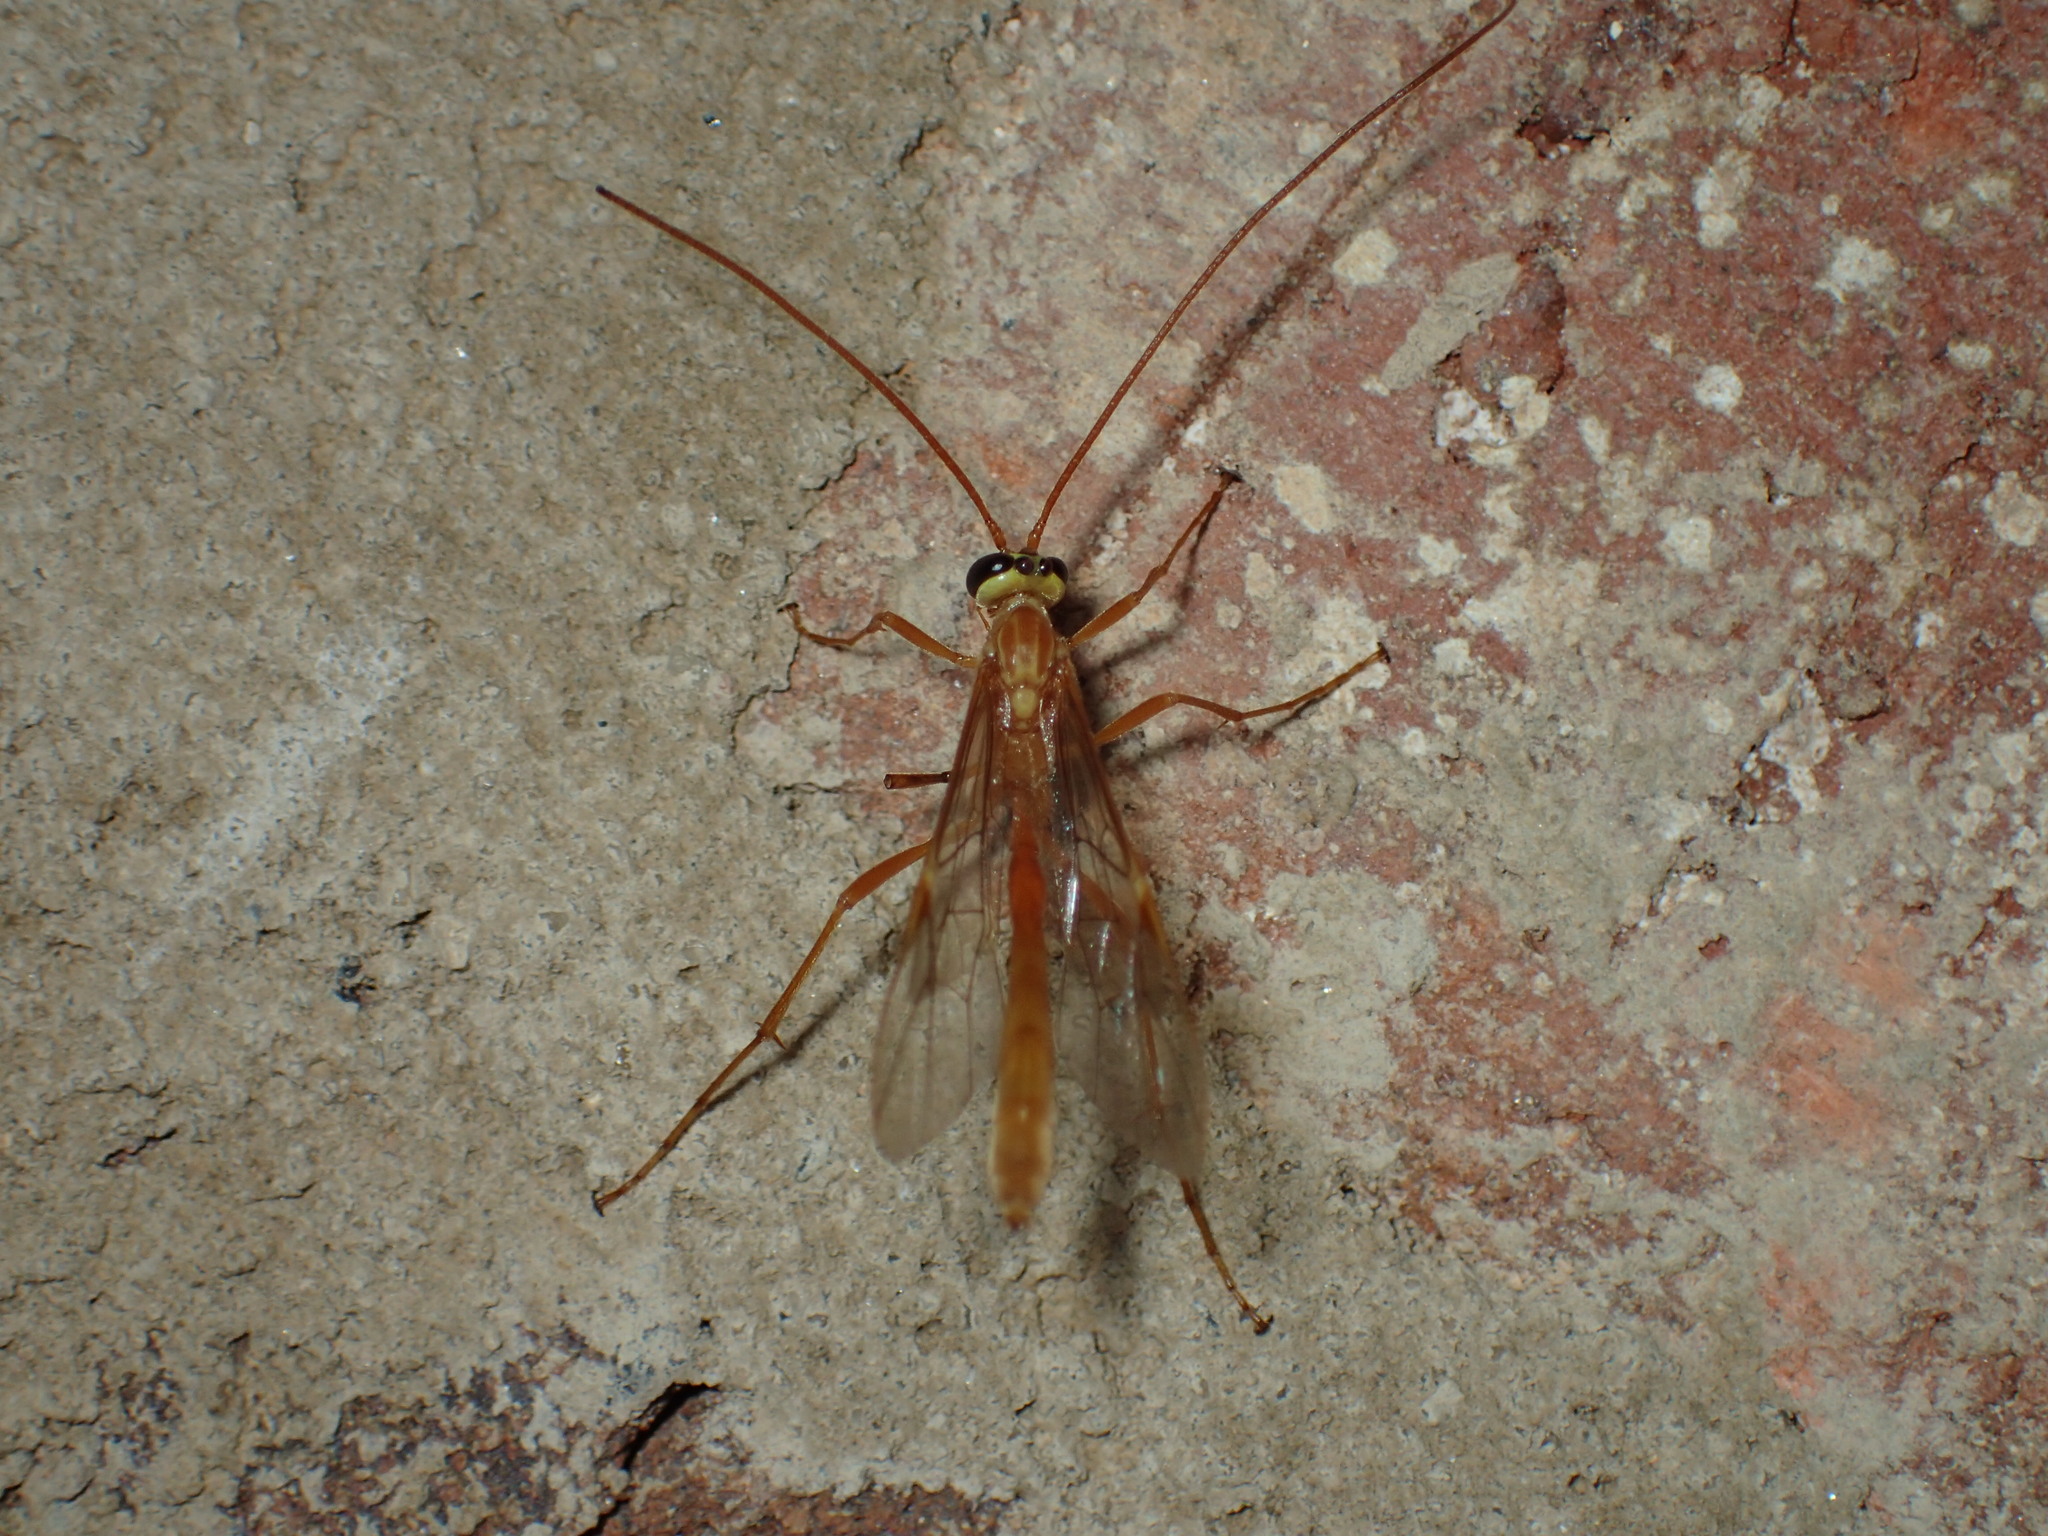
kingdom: Animalia
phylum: Arthropoda
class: Insecta
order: Hymenoptera
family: Ichneumonidae
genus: Ophion
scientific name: Ophion
